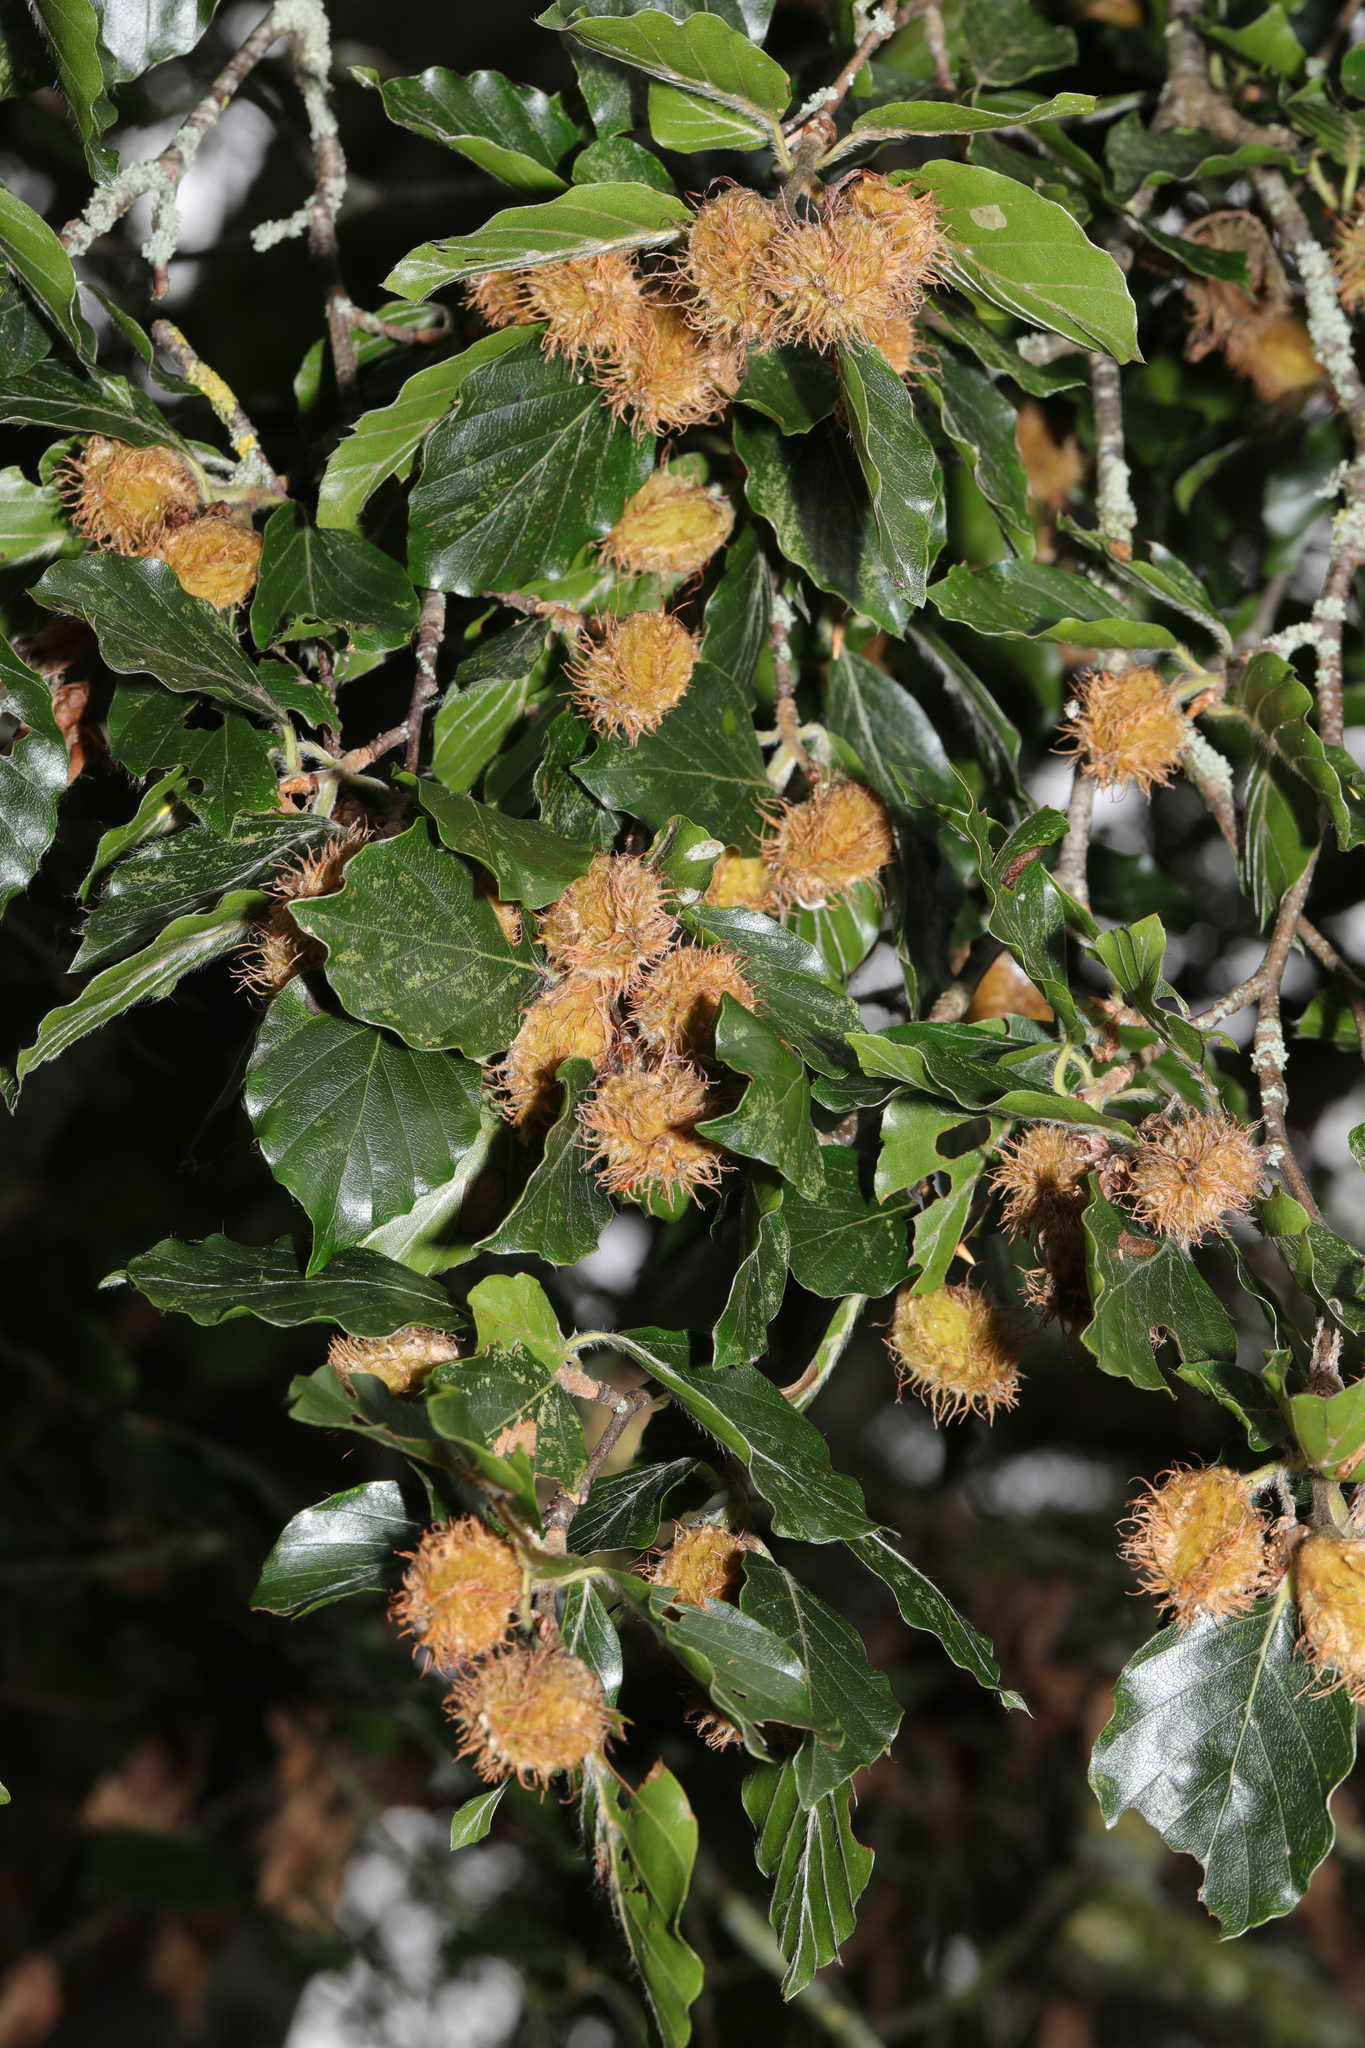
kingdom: Plantae
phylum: Tracheophyta
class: Magnoliopsida
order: Fagales
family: Fagaceae
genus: Fagus
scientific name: Fagus sylvatica
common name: Beech
